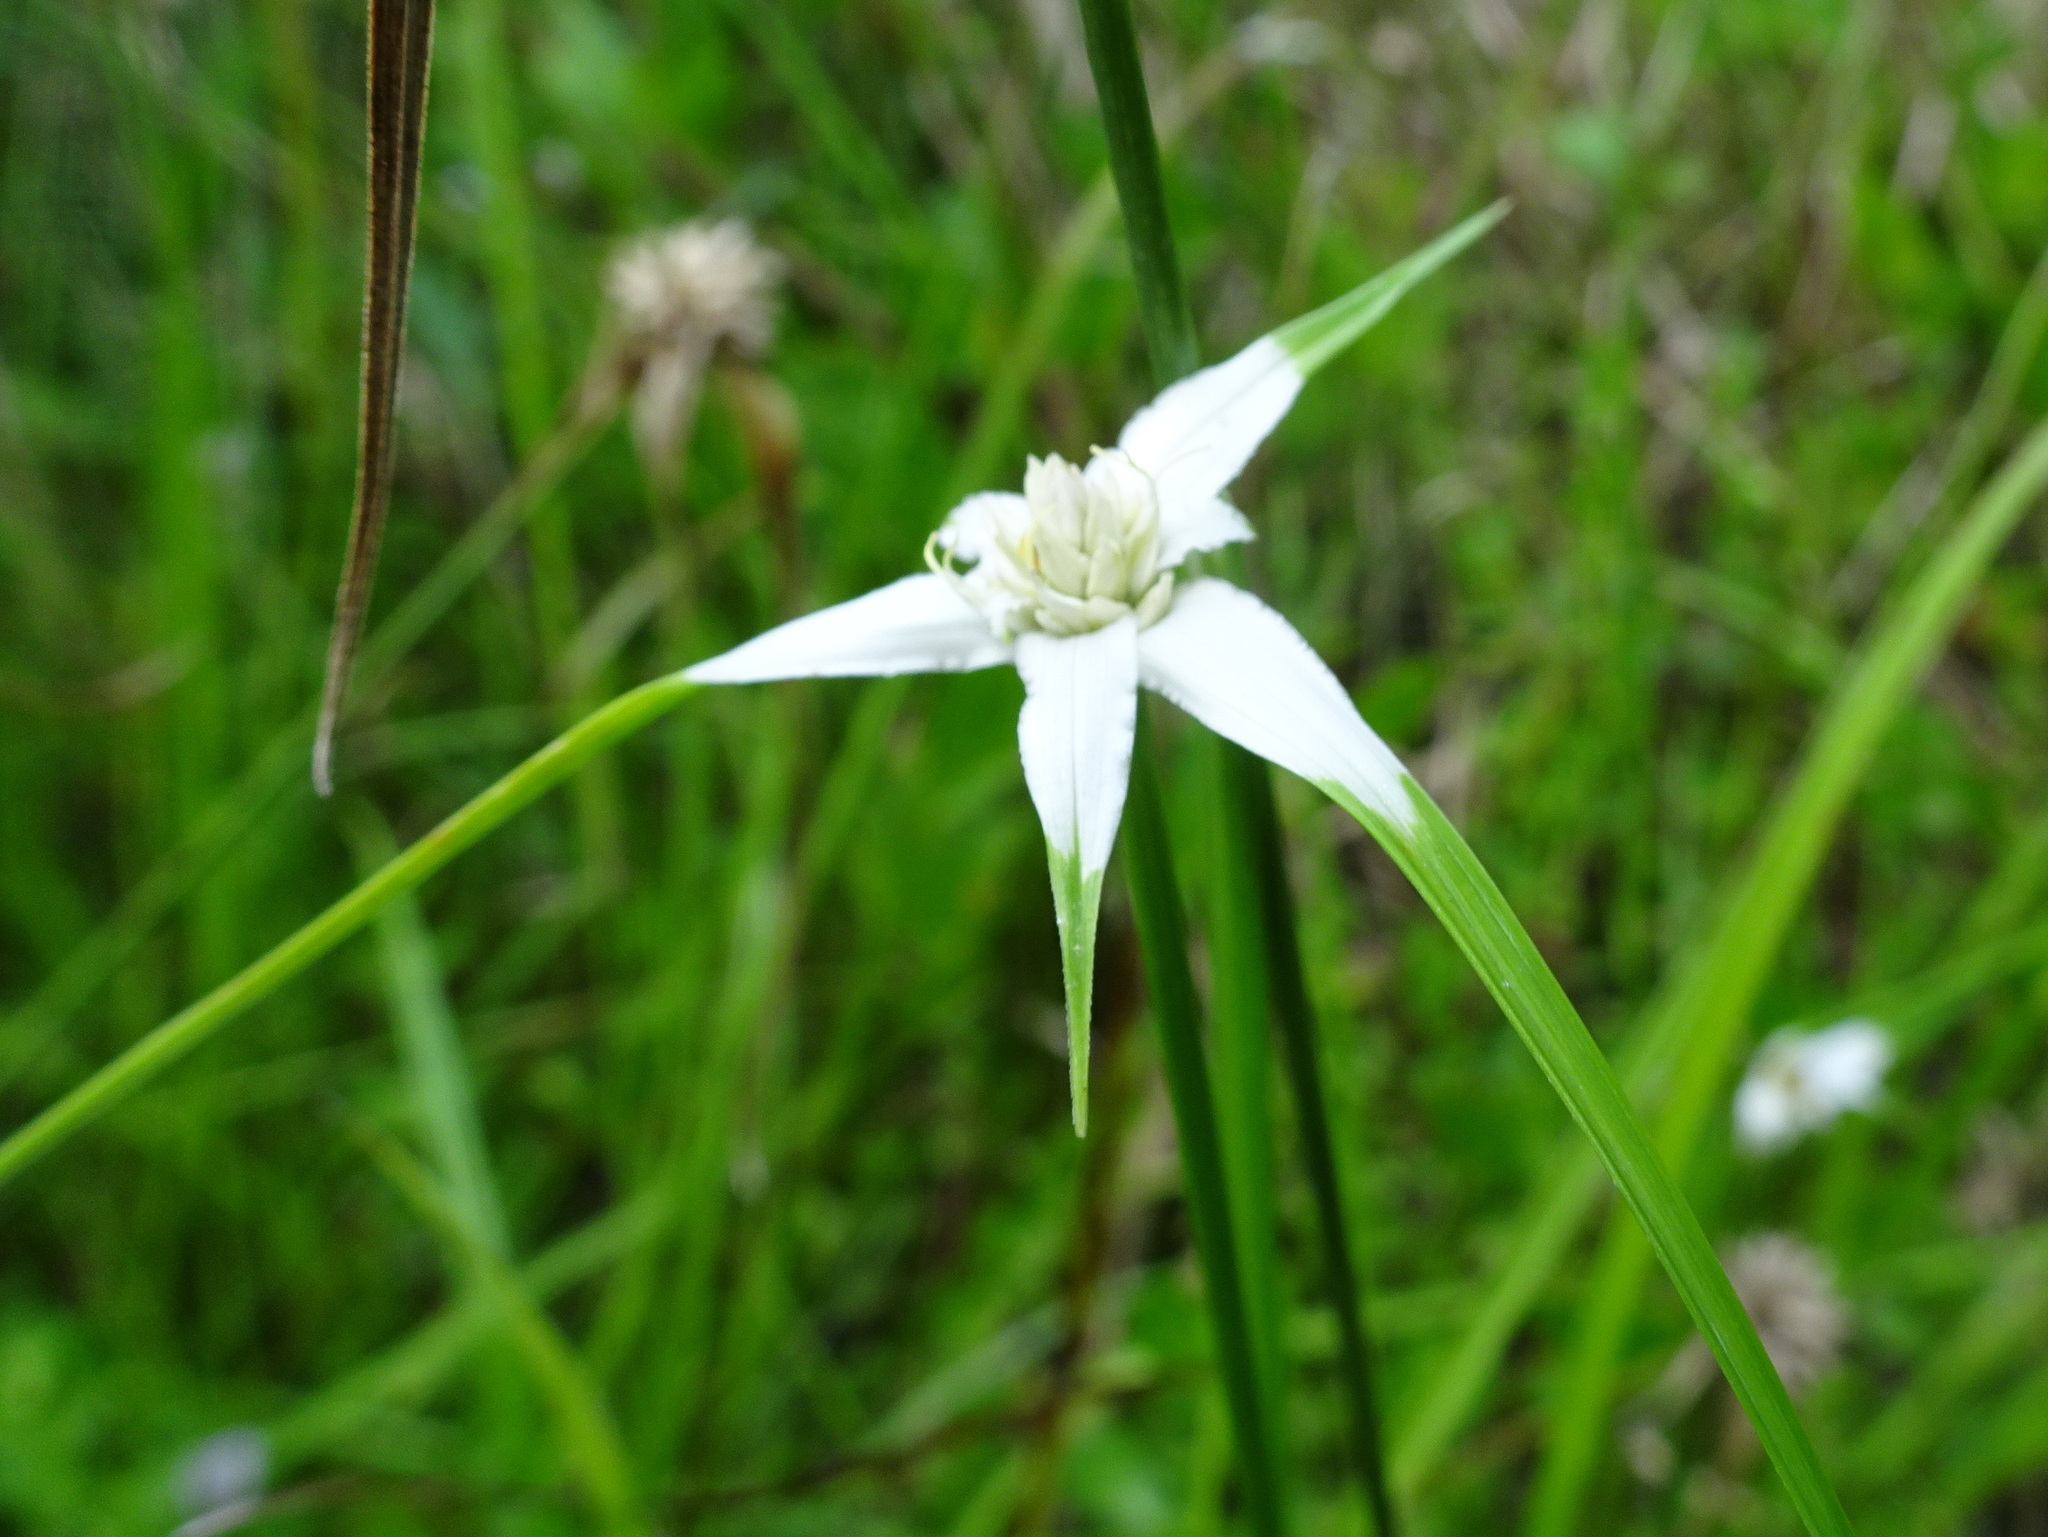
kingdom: Plantae
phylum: Tracheophyta
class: Liliopsida
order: Poales
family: Cyperaceae
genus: Rhynchospora
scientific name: Rhynchospora colorata
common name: Star sedge
